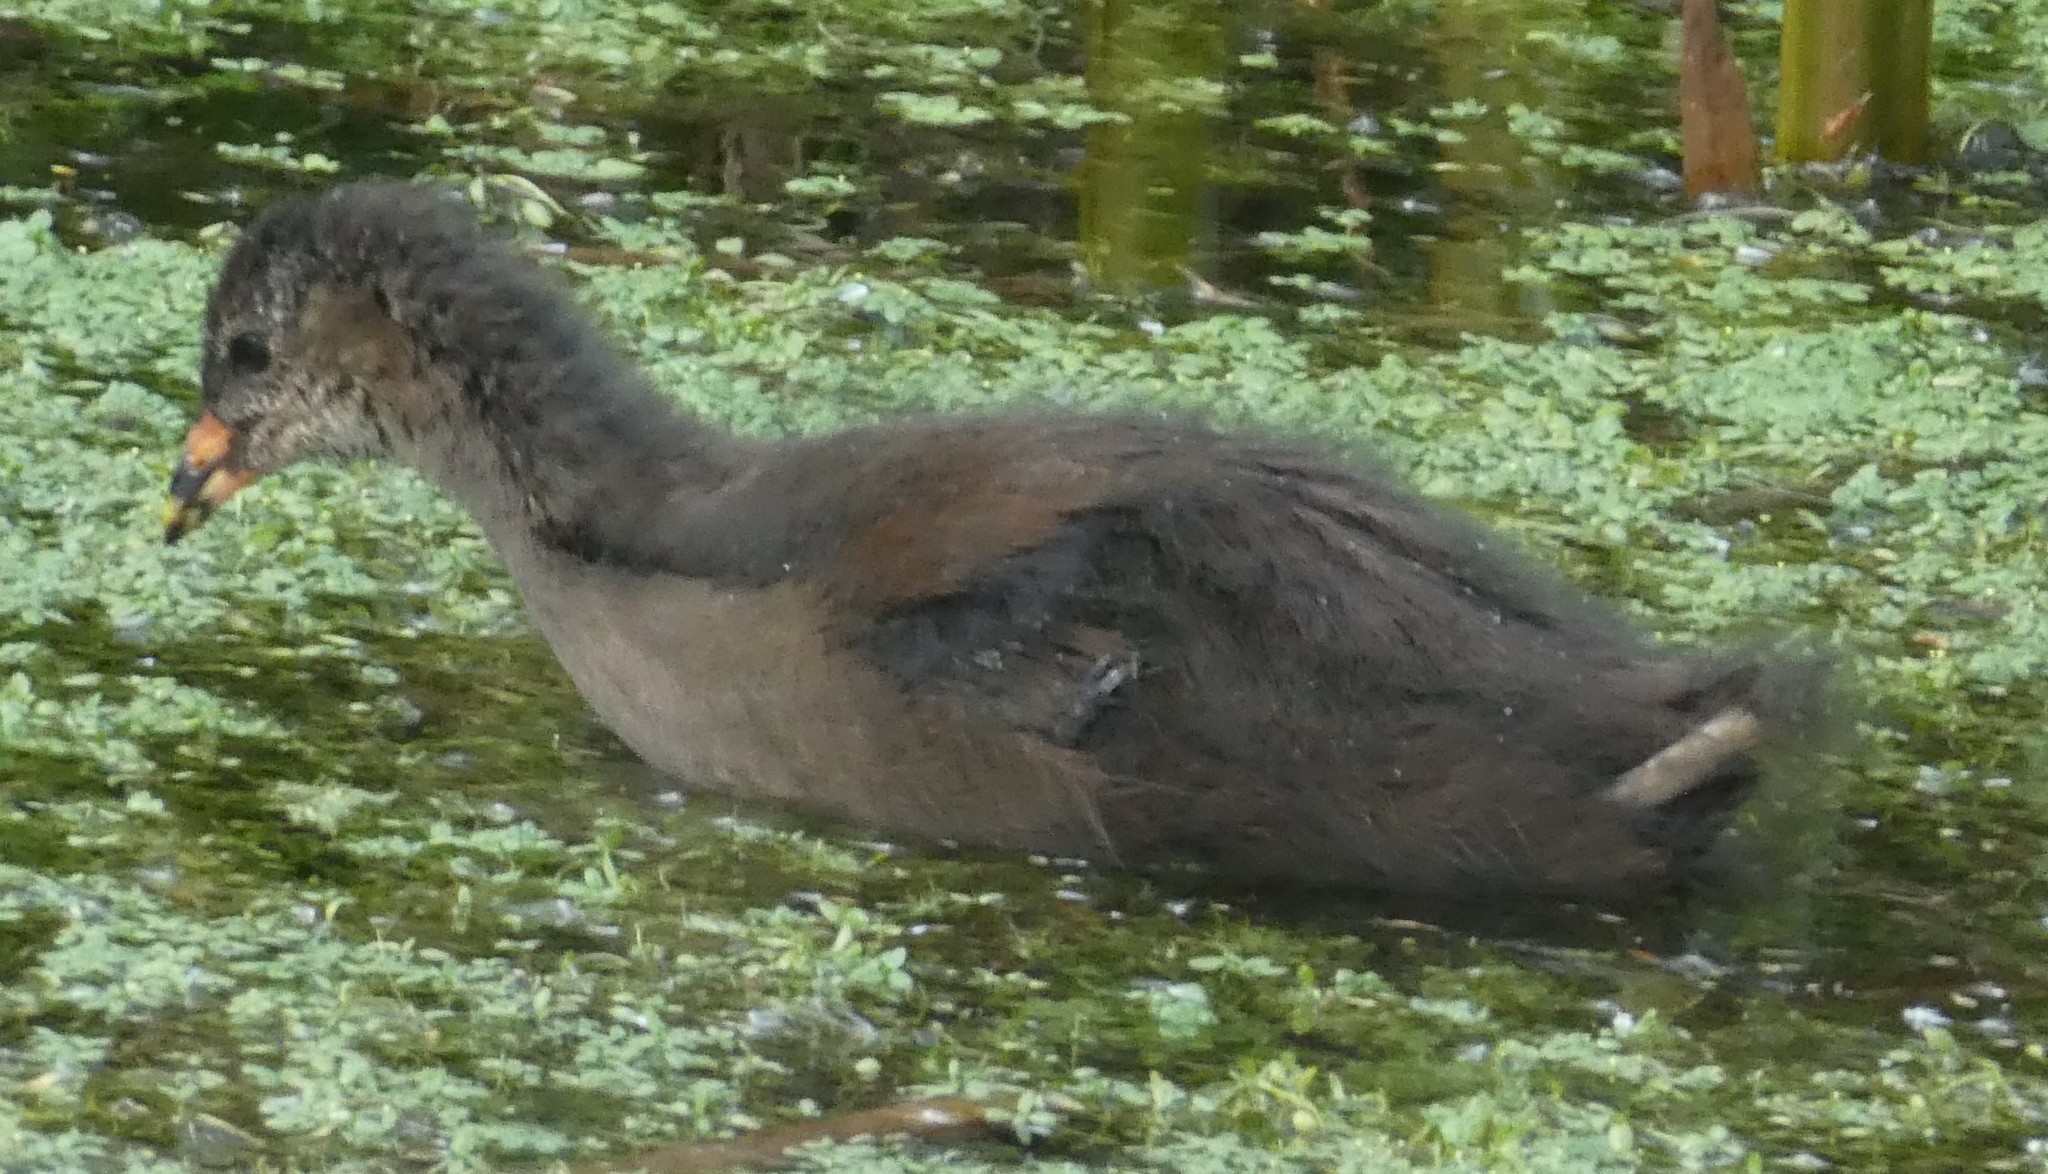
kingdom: Animalia
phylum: Chordata
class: Aves
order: Gruiformes
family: Rallidae
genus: Gallinula
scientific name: Gallinula chloropus
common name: Common moorhen
